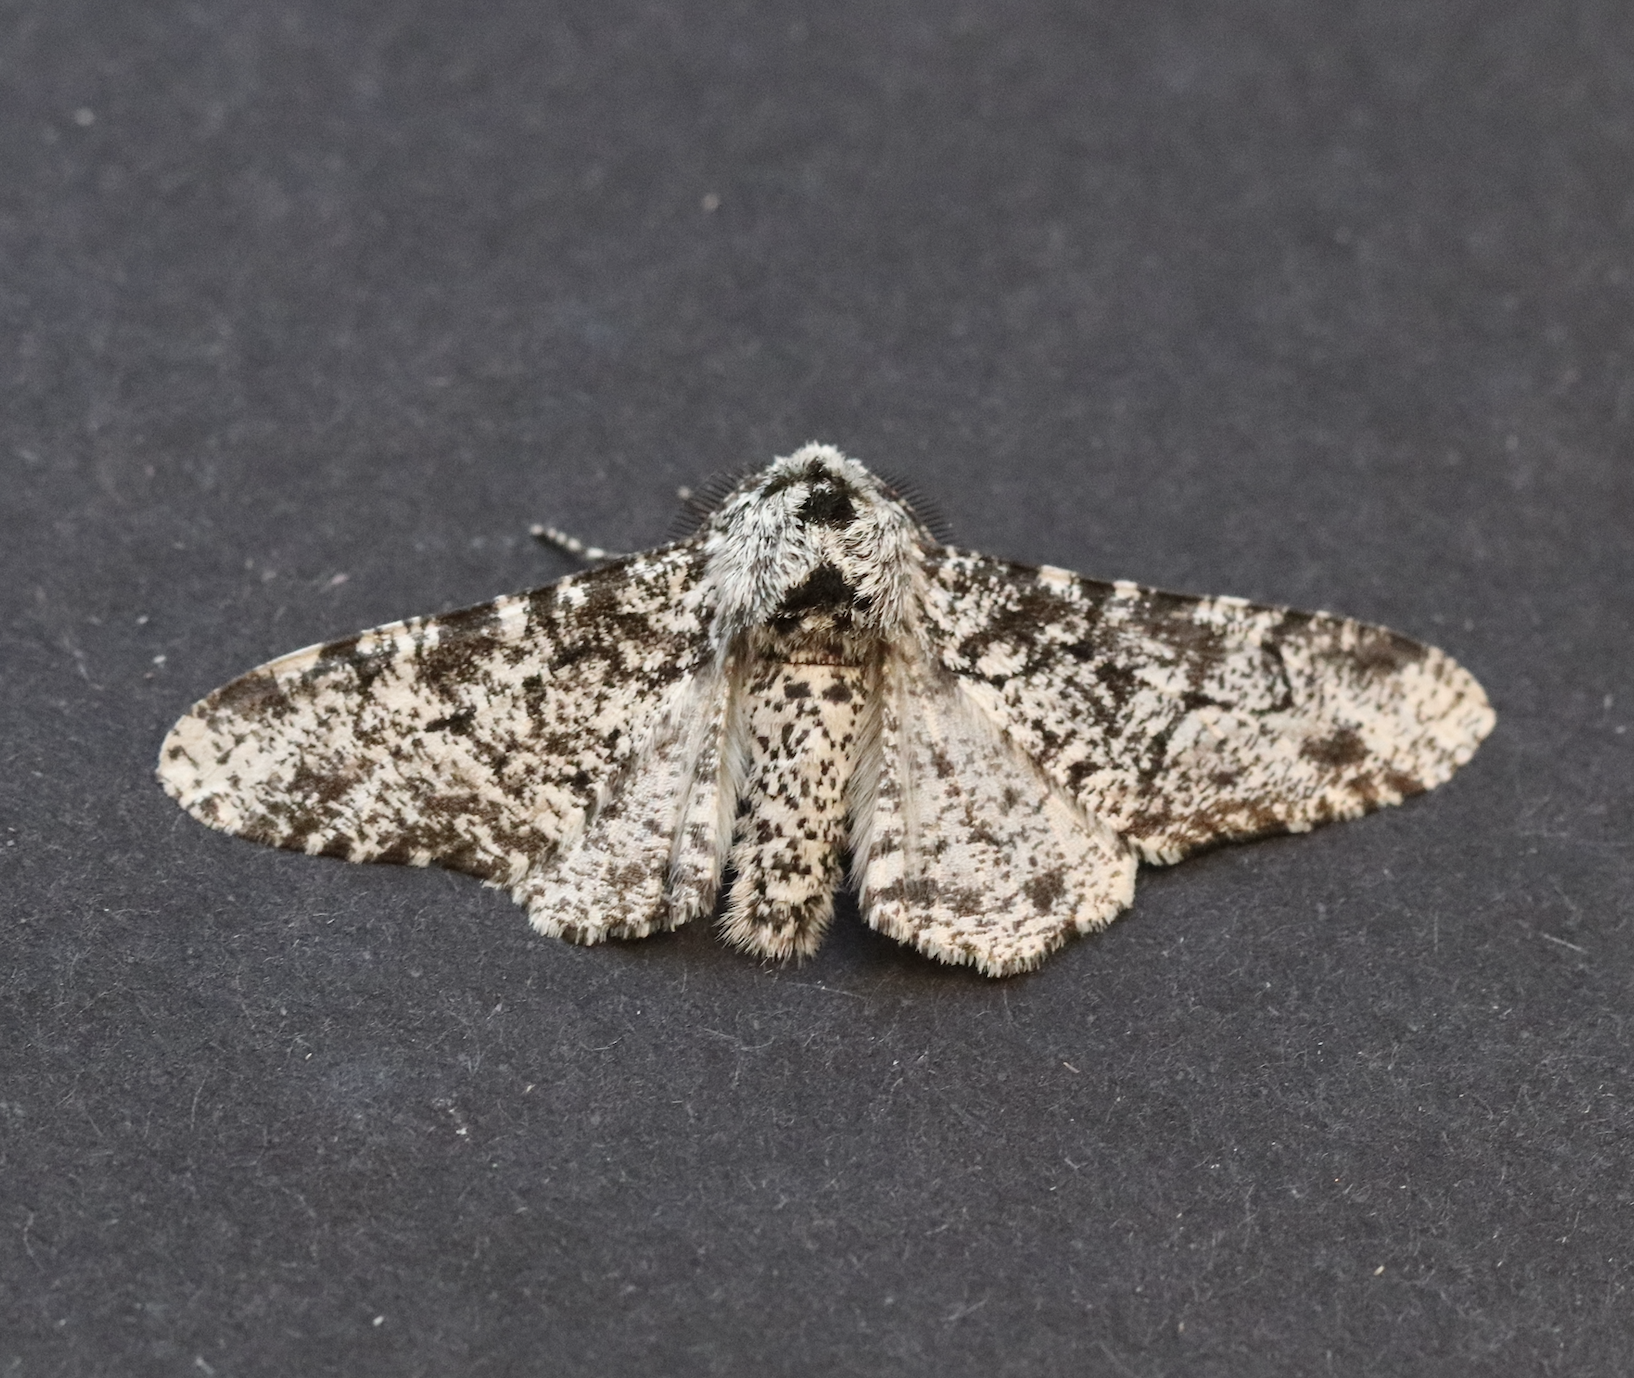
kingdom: Animalia
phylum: Arthropoda
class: Insecta
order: Lepidoptera
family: Geometridae
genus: Biston
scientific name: Biston betularia
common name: Peppered moth
